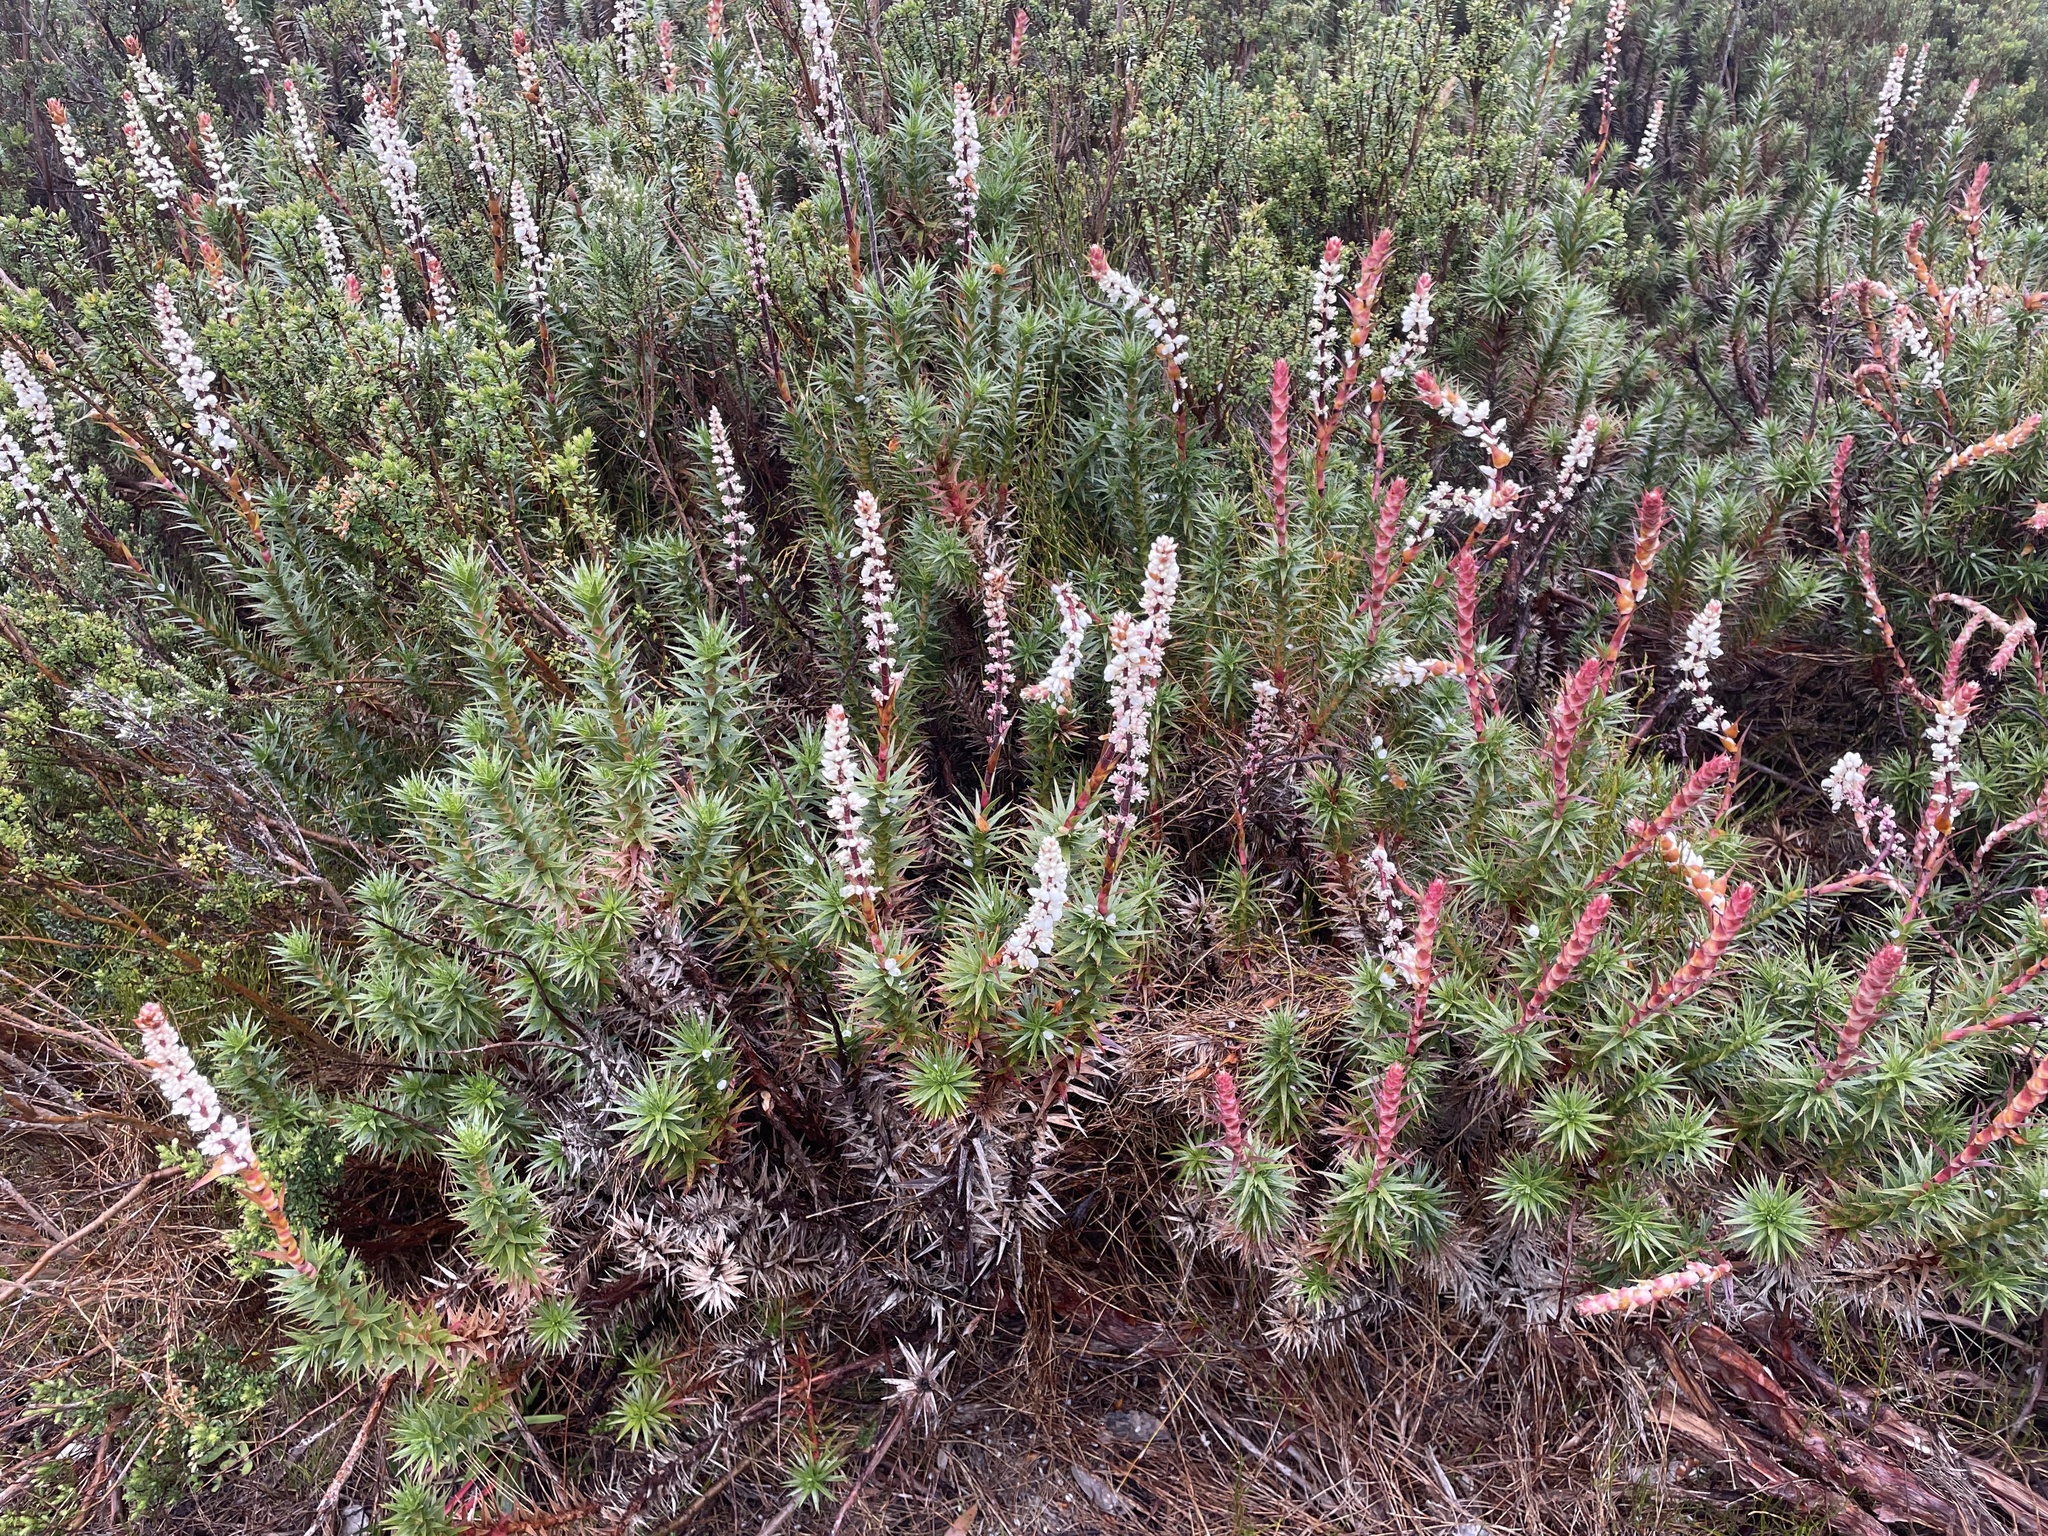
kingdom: Plantae
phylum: Tracheophyta
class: Magnoliopsida
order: Ericales
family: Ericaceae
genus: Dracophyllum
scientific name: Dracophyllum continentis
